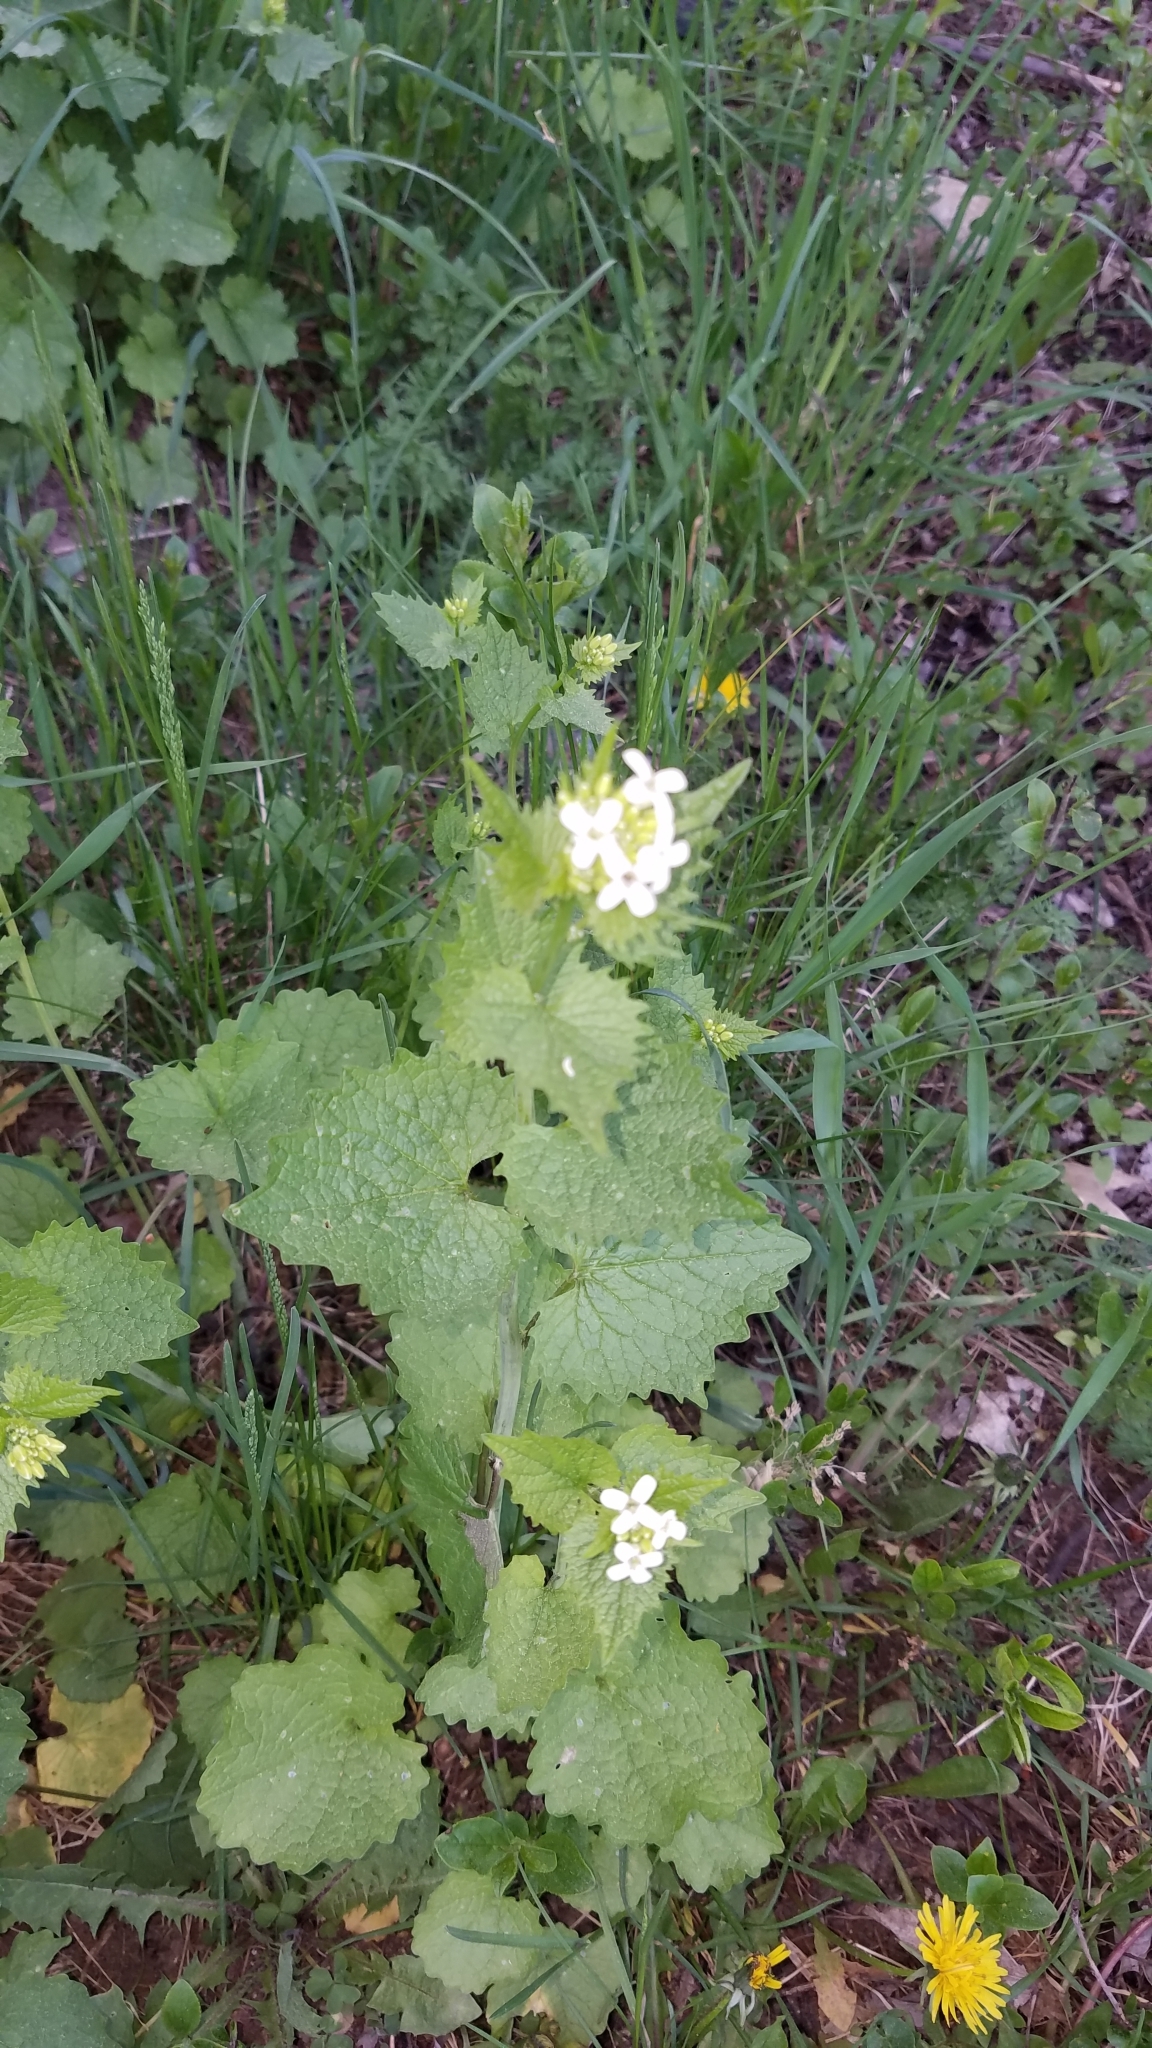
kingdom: Plantae
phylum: Tracheophyta
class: Magnoliopsida
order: Brassicales
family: Brassicaceae
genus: Alliaria
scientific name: Alliaria petiolata
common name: Garlic mustard
